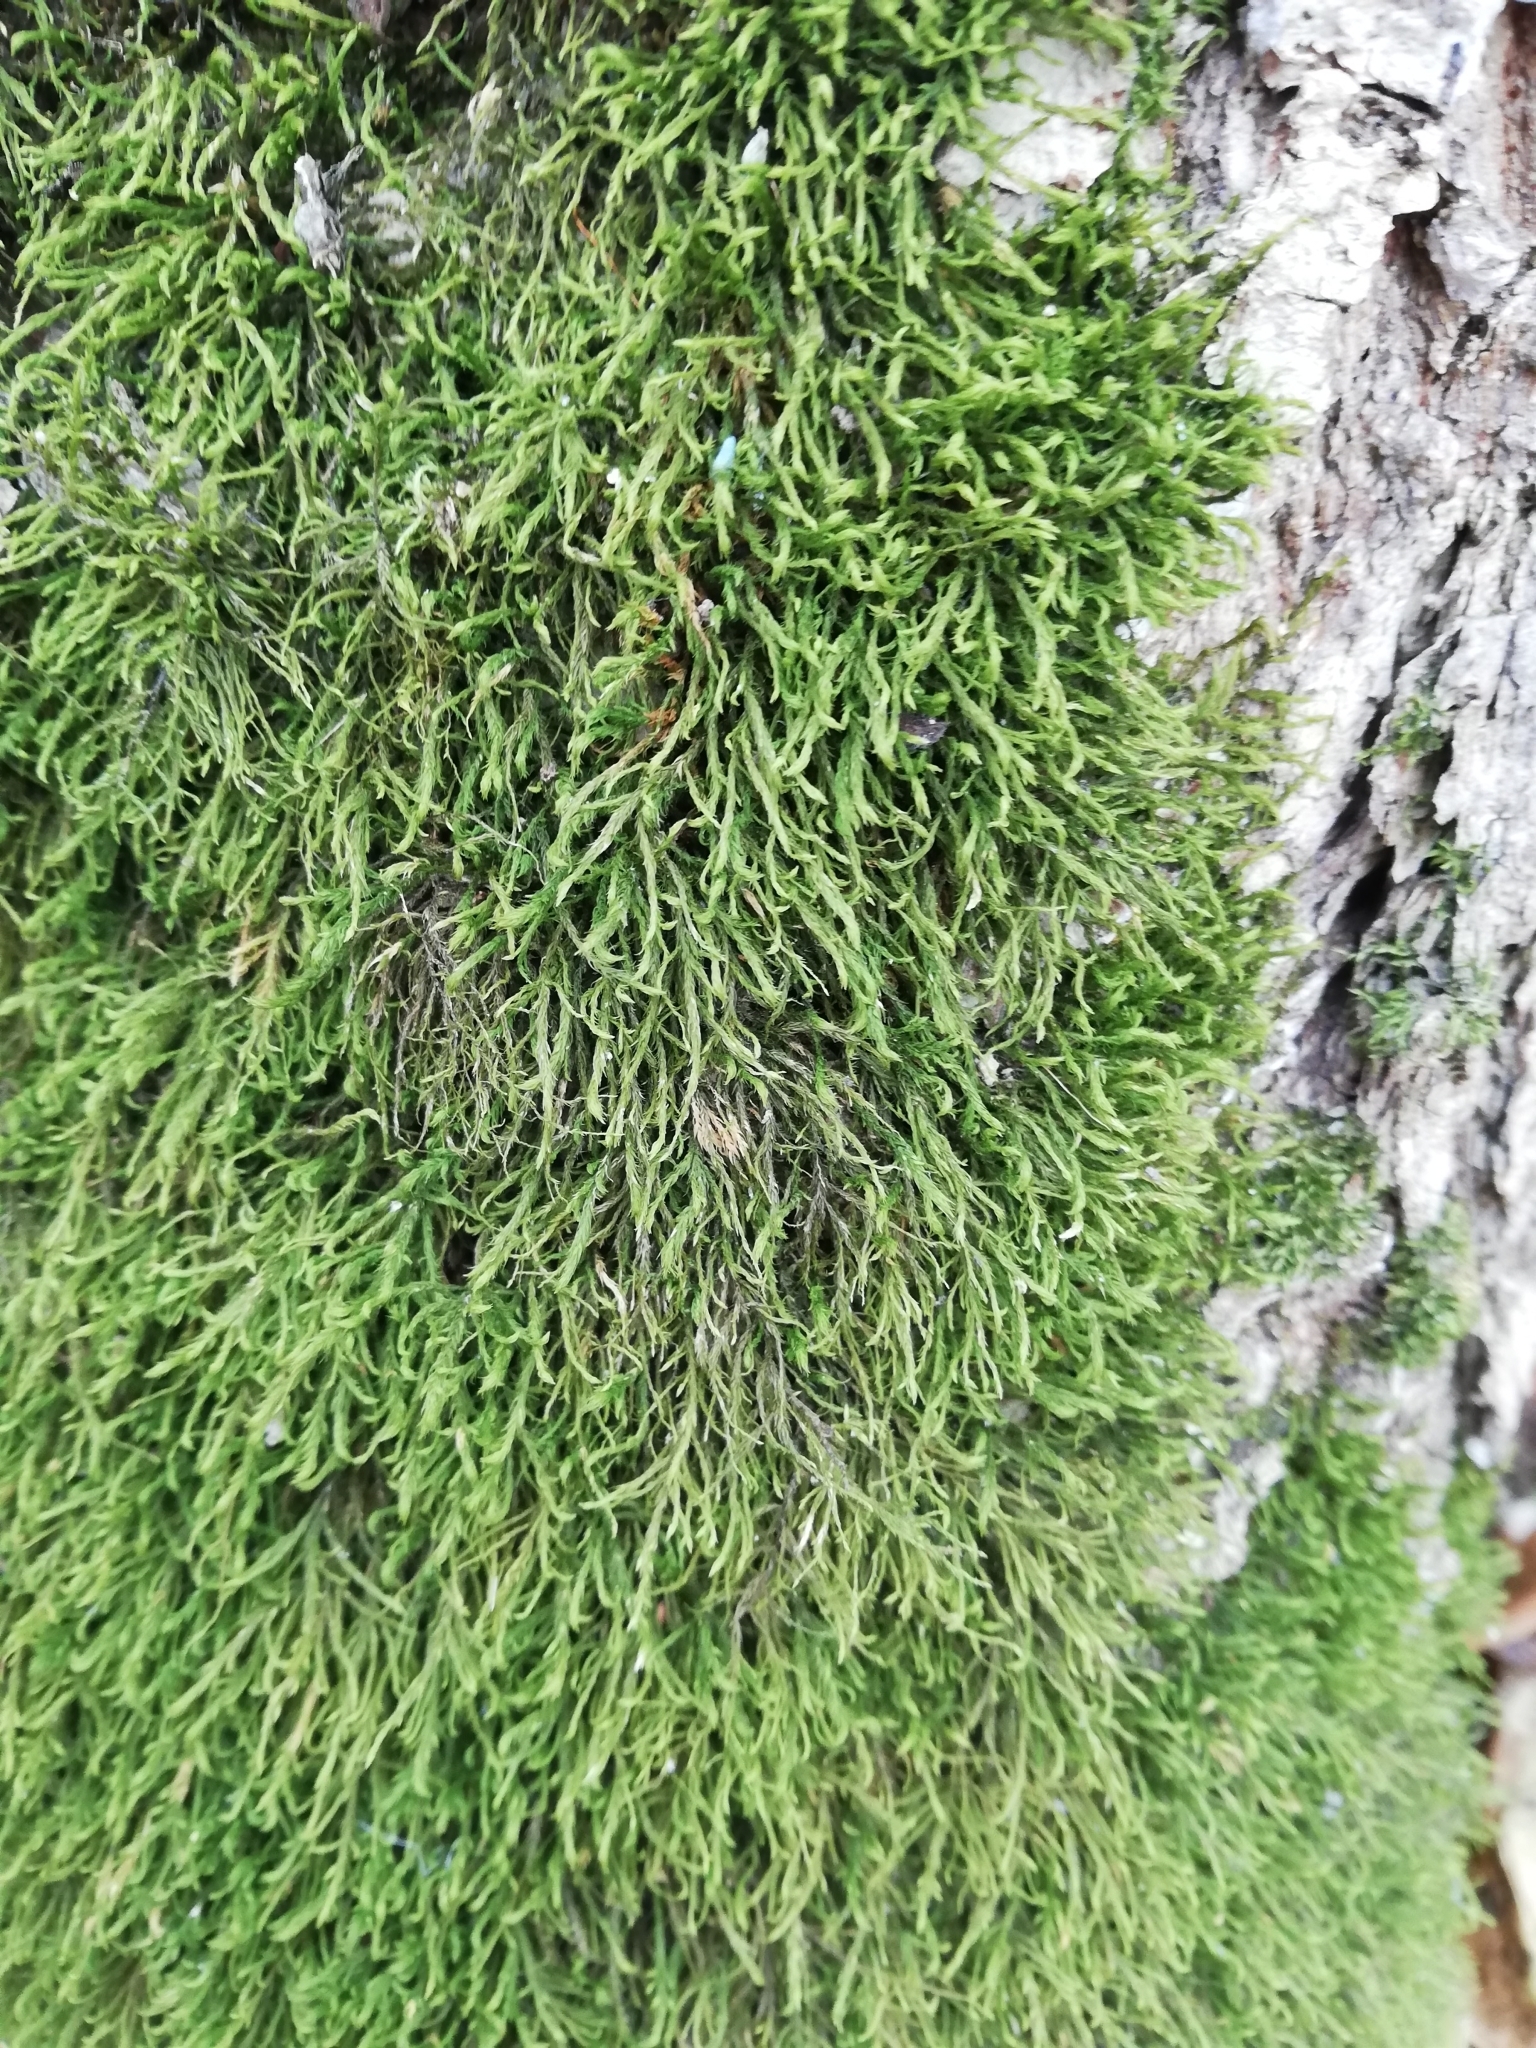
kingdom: Plantae
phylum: Bryophyta
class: Bryopsida
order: Hypnales
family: Neckeraceae
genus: Pseudanomodon
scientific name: Pseudanomodon attenuatus
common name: Tree-skirt moss
